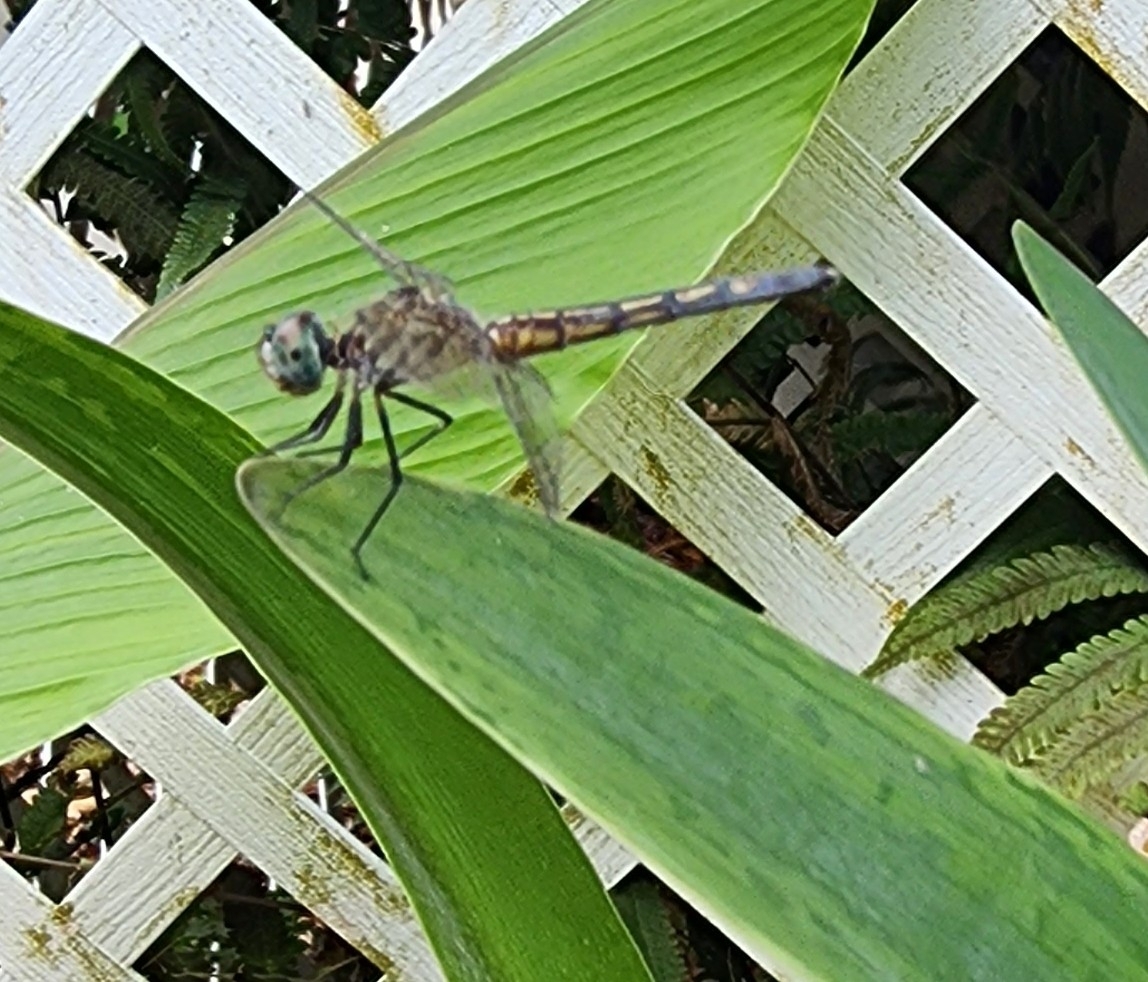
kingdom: Animalia
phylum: Arthropoda
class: Insecta
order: Odonata
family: Libellulidae
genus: Pachydiplax
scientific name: Pachydiplax longipennis
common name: Blue dasher
